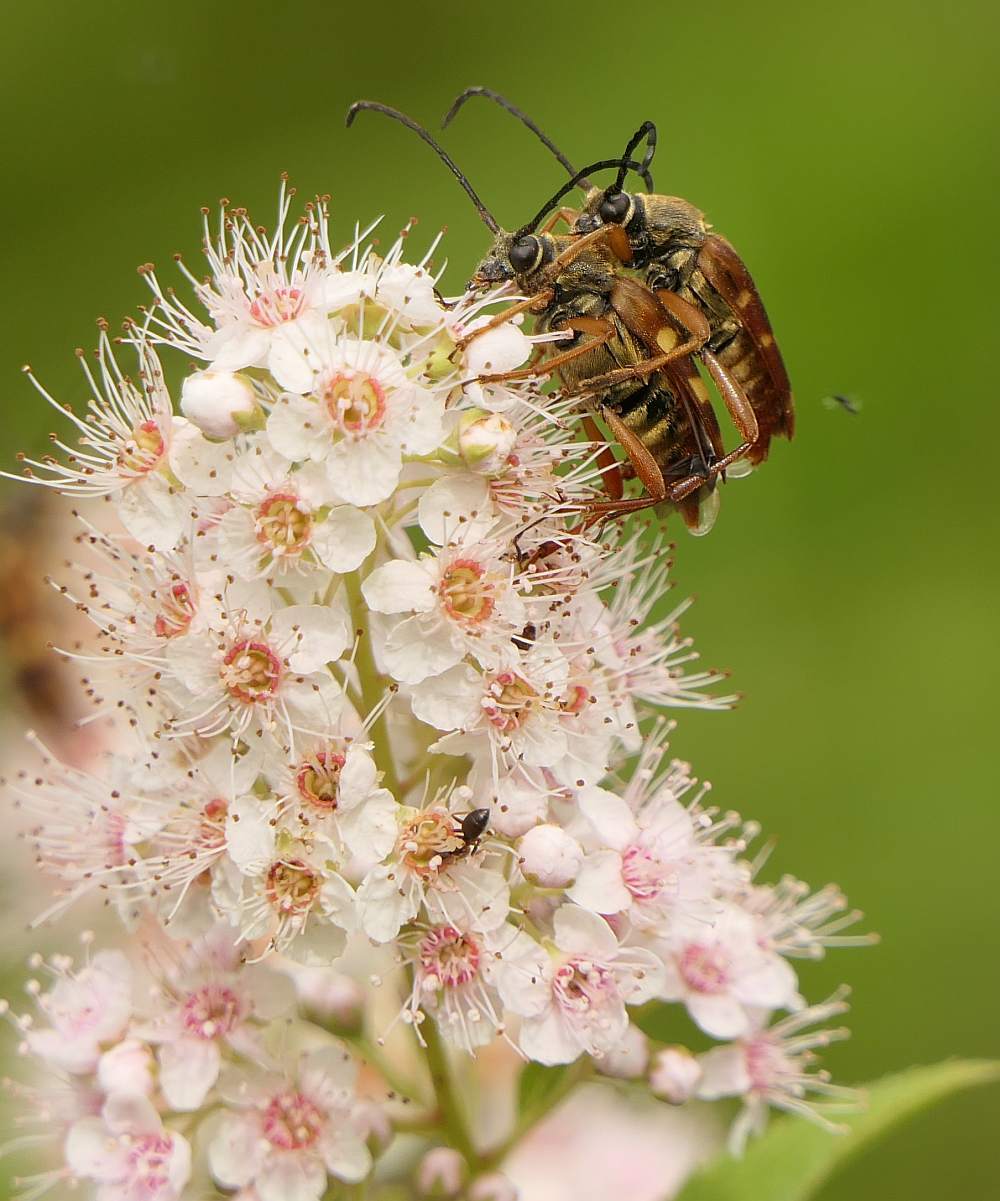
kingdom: Animalia
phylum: Arthropoda
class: Insecta
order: Coleoptera
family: Cerambycidae
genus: Typocerus
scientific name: Typocerus velutinus
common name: Banded longhorn beetle
